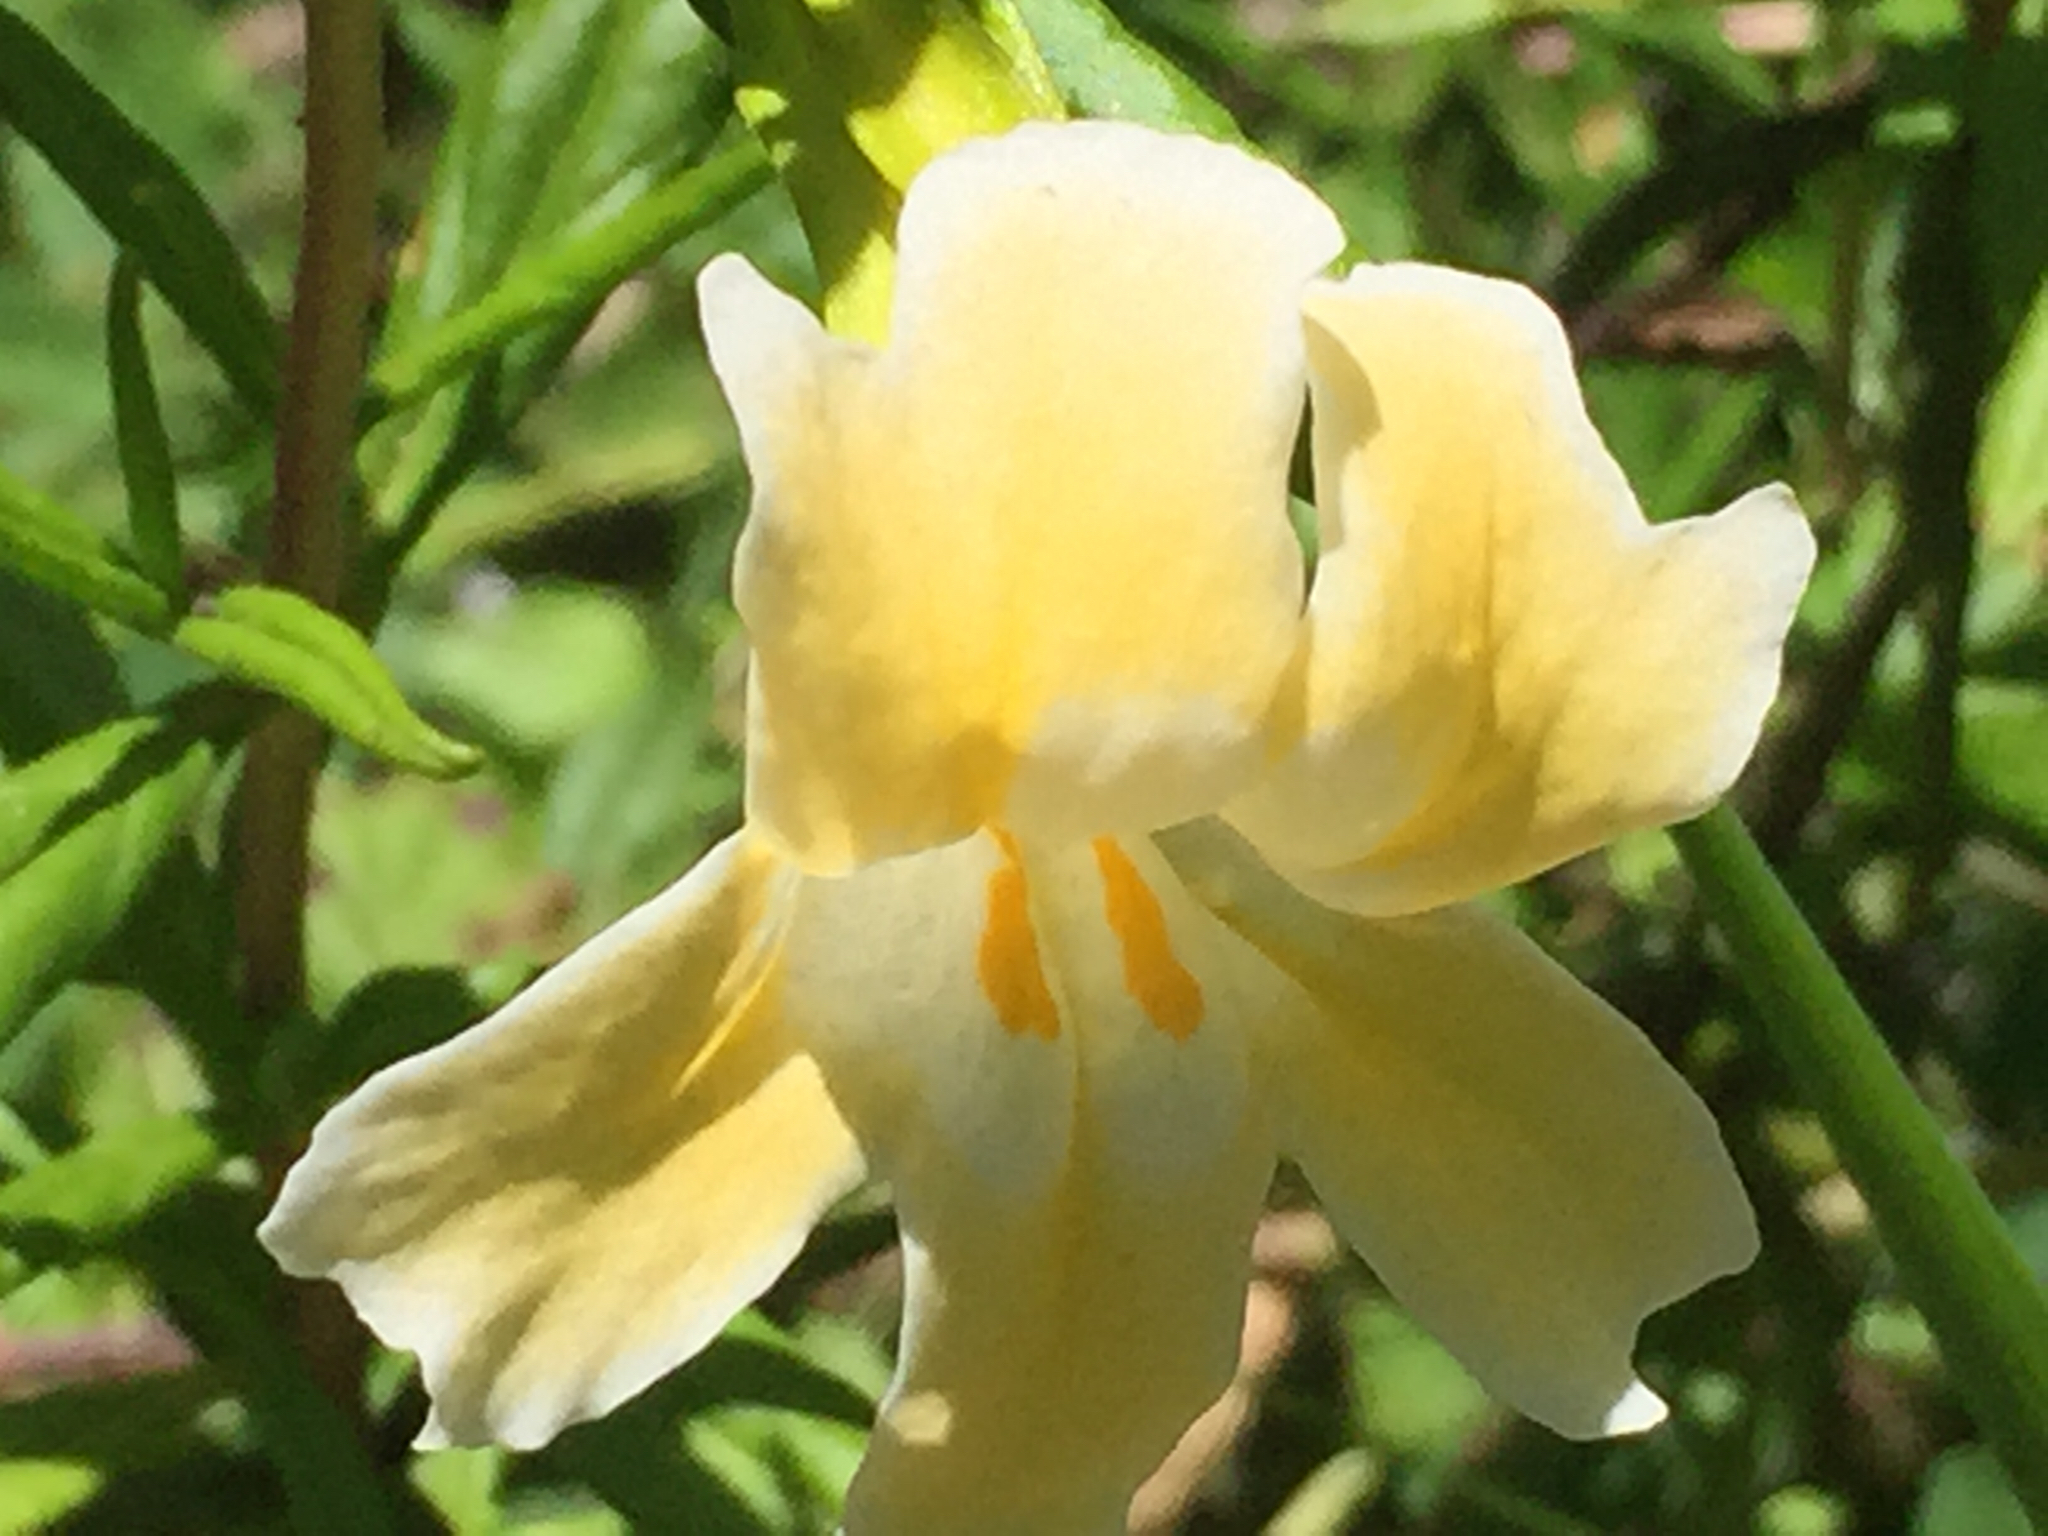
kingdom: Plantae
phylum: Tracheophyta
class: Magnoliopsida
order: Lamiales
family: Phrymaceae
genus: Diplacus
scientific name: Diplacus aurantiacus
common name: Bush monkey-flower
